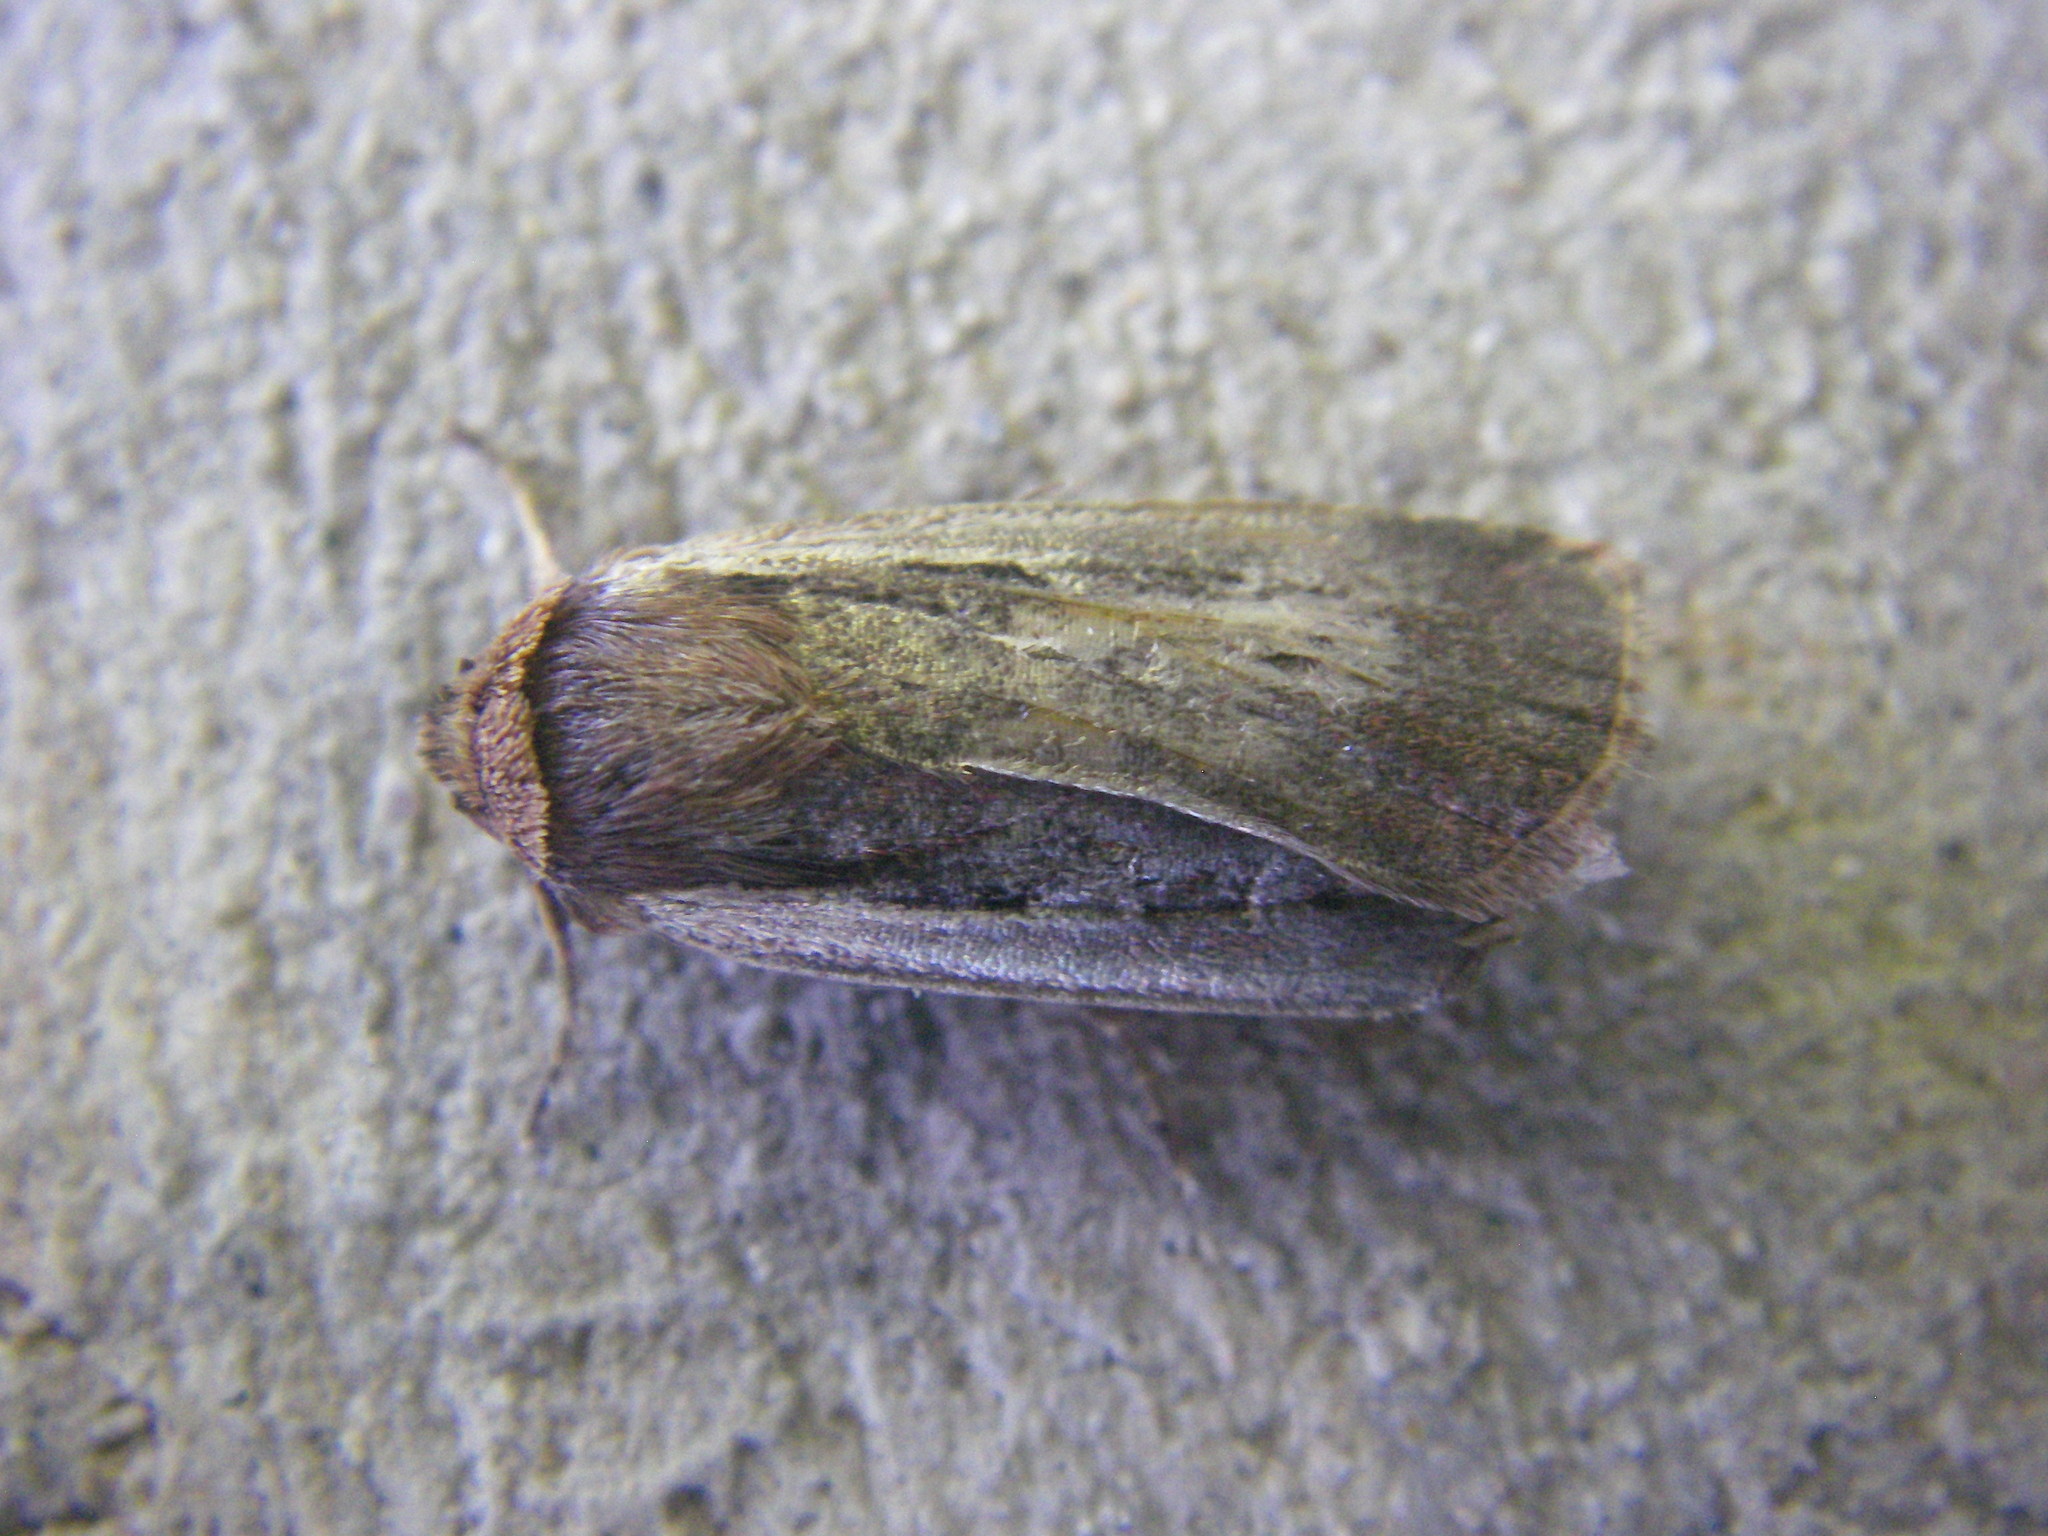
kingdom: Animalia
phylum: Arthropoda
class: Insecta
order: Lepidoptera
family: Noctuidae
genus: Ochropleura
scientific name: Ochropleura plecta
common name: Flame shoulder
